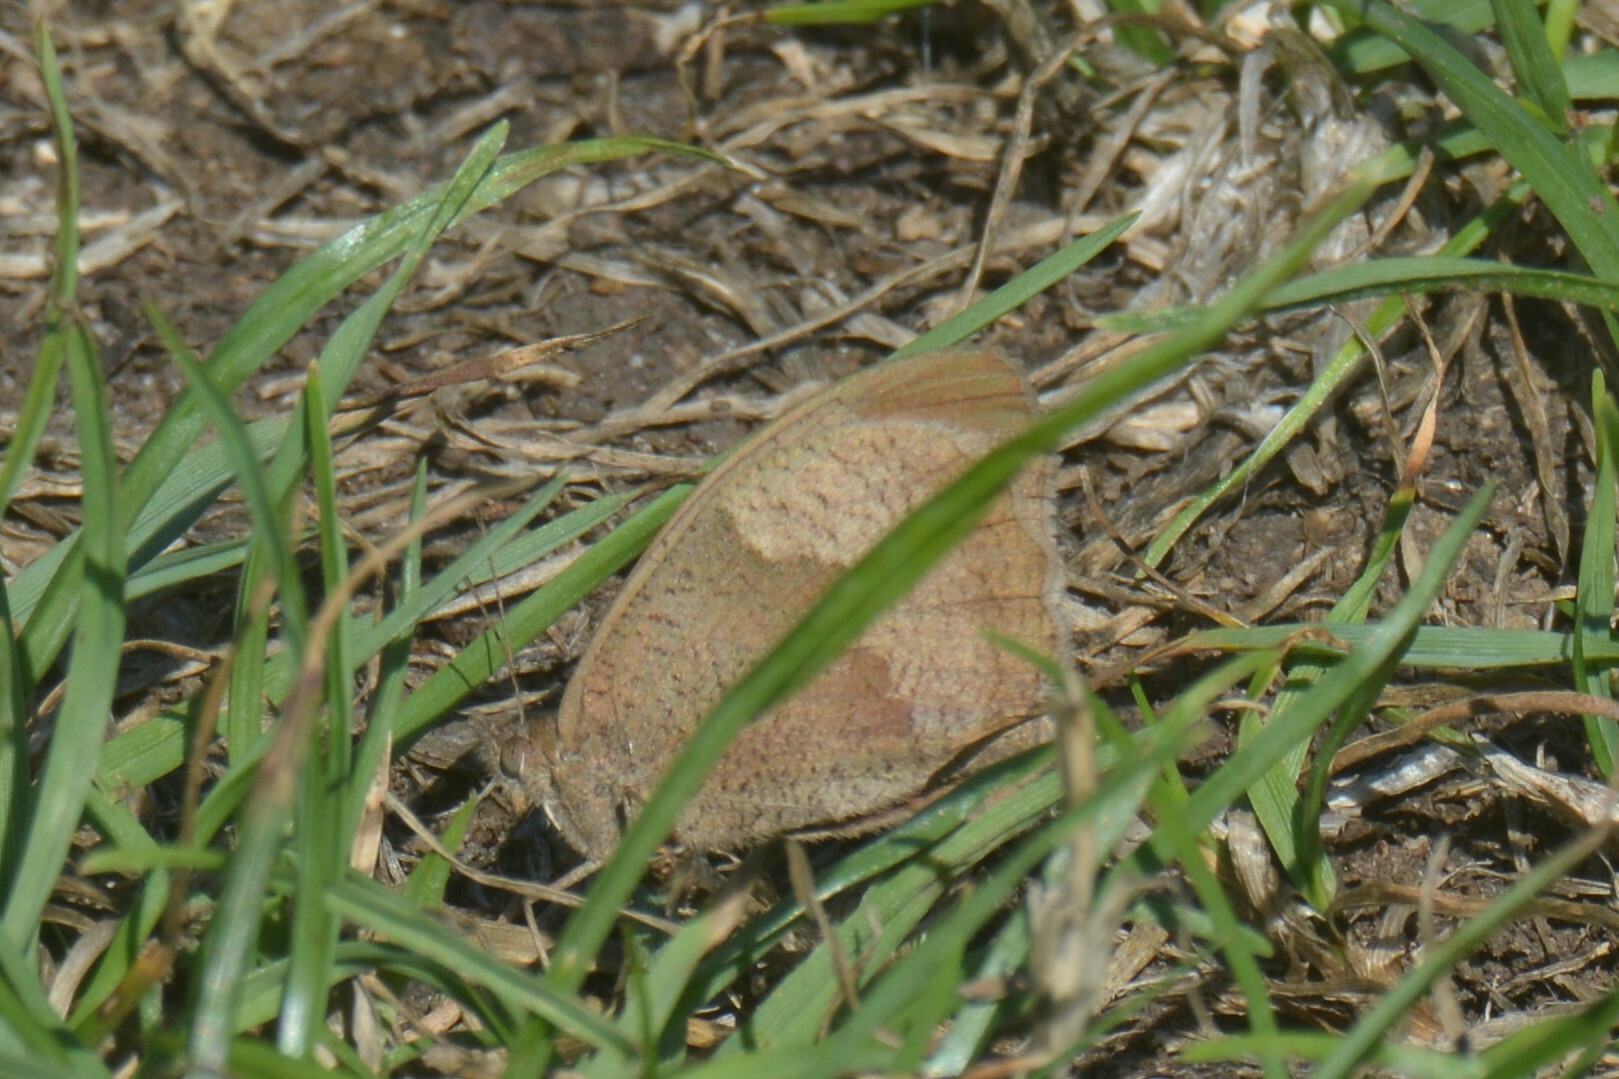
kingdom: Animalia
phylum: Arthropoda
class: Insecta
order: Lepidoptera
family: Nymphalidae
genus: Maniola
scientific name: Maniola jurtina
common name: Meadow brown
